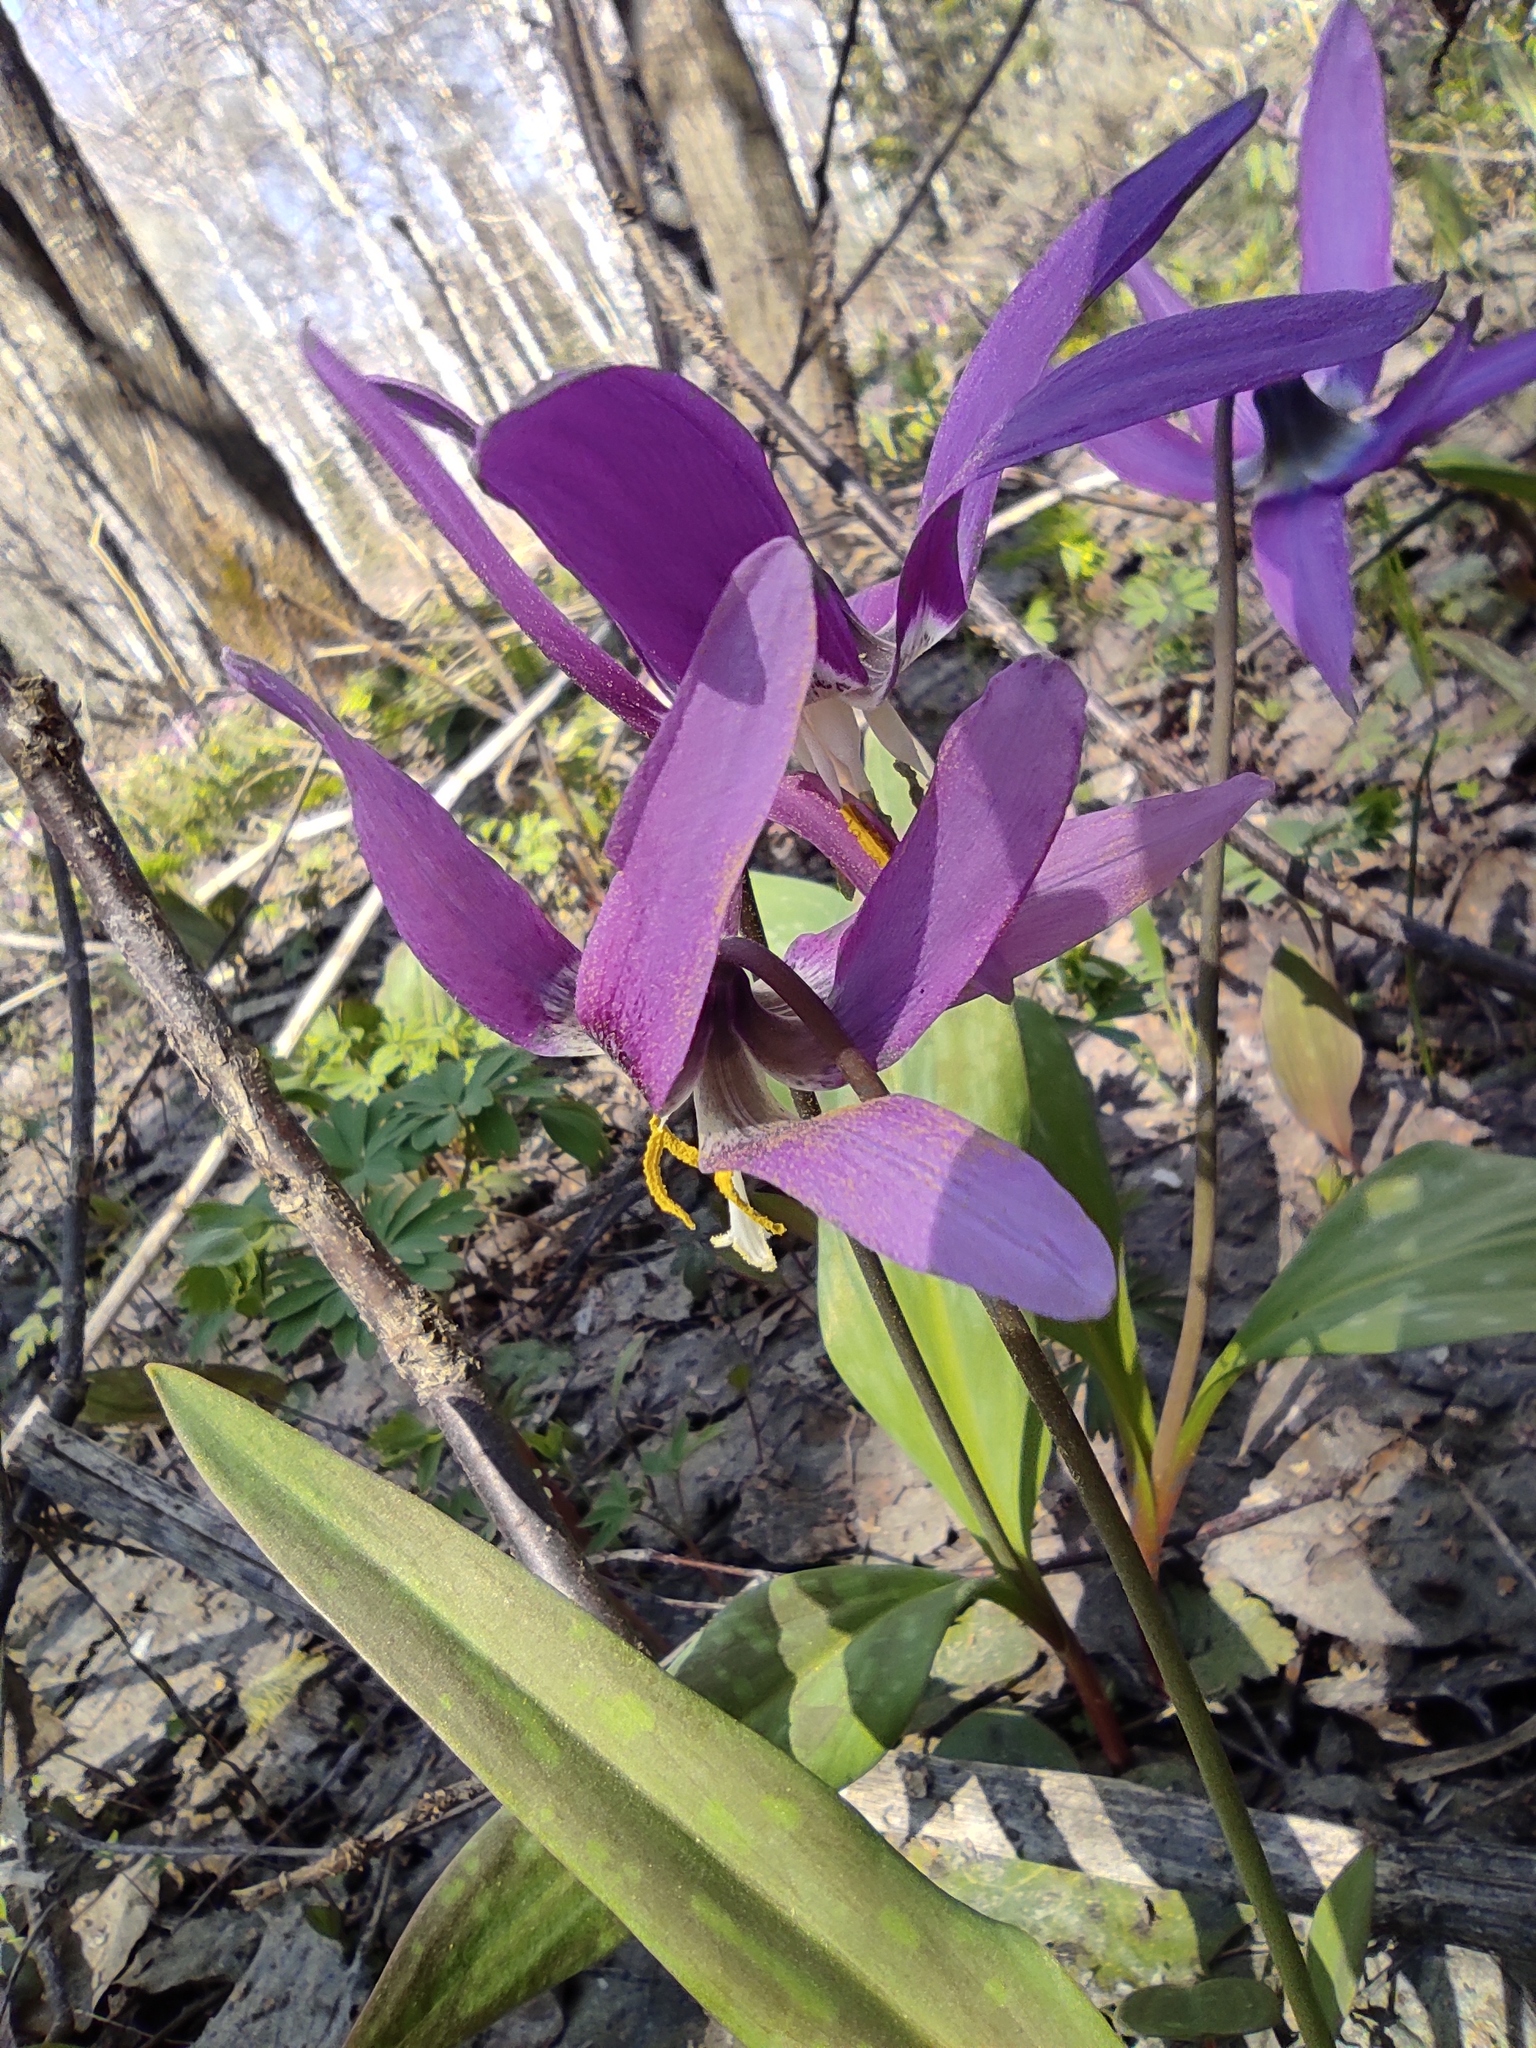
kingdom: Plantae
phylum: Tracheophyta
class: Liliopsida
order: Liliales
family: Liliaceae
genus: Erythronium
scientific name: Erythronium sibiricum
